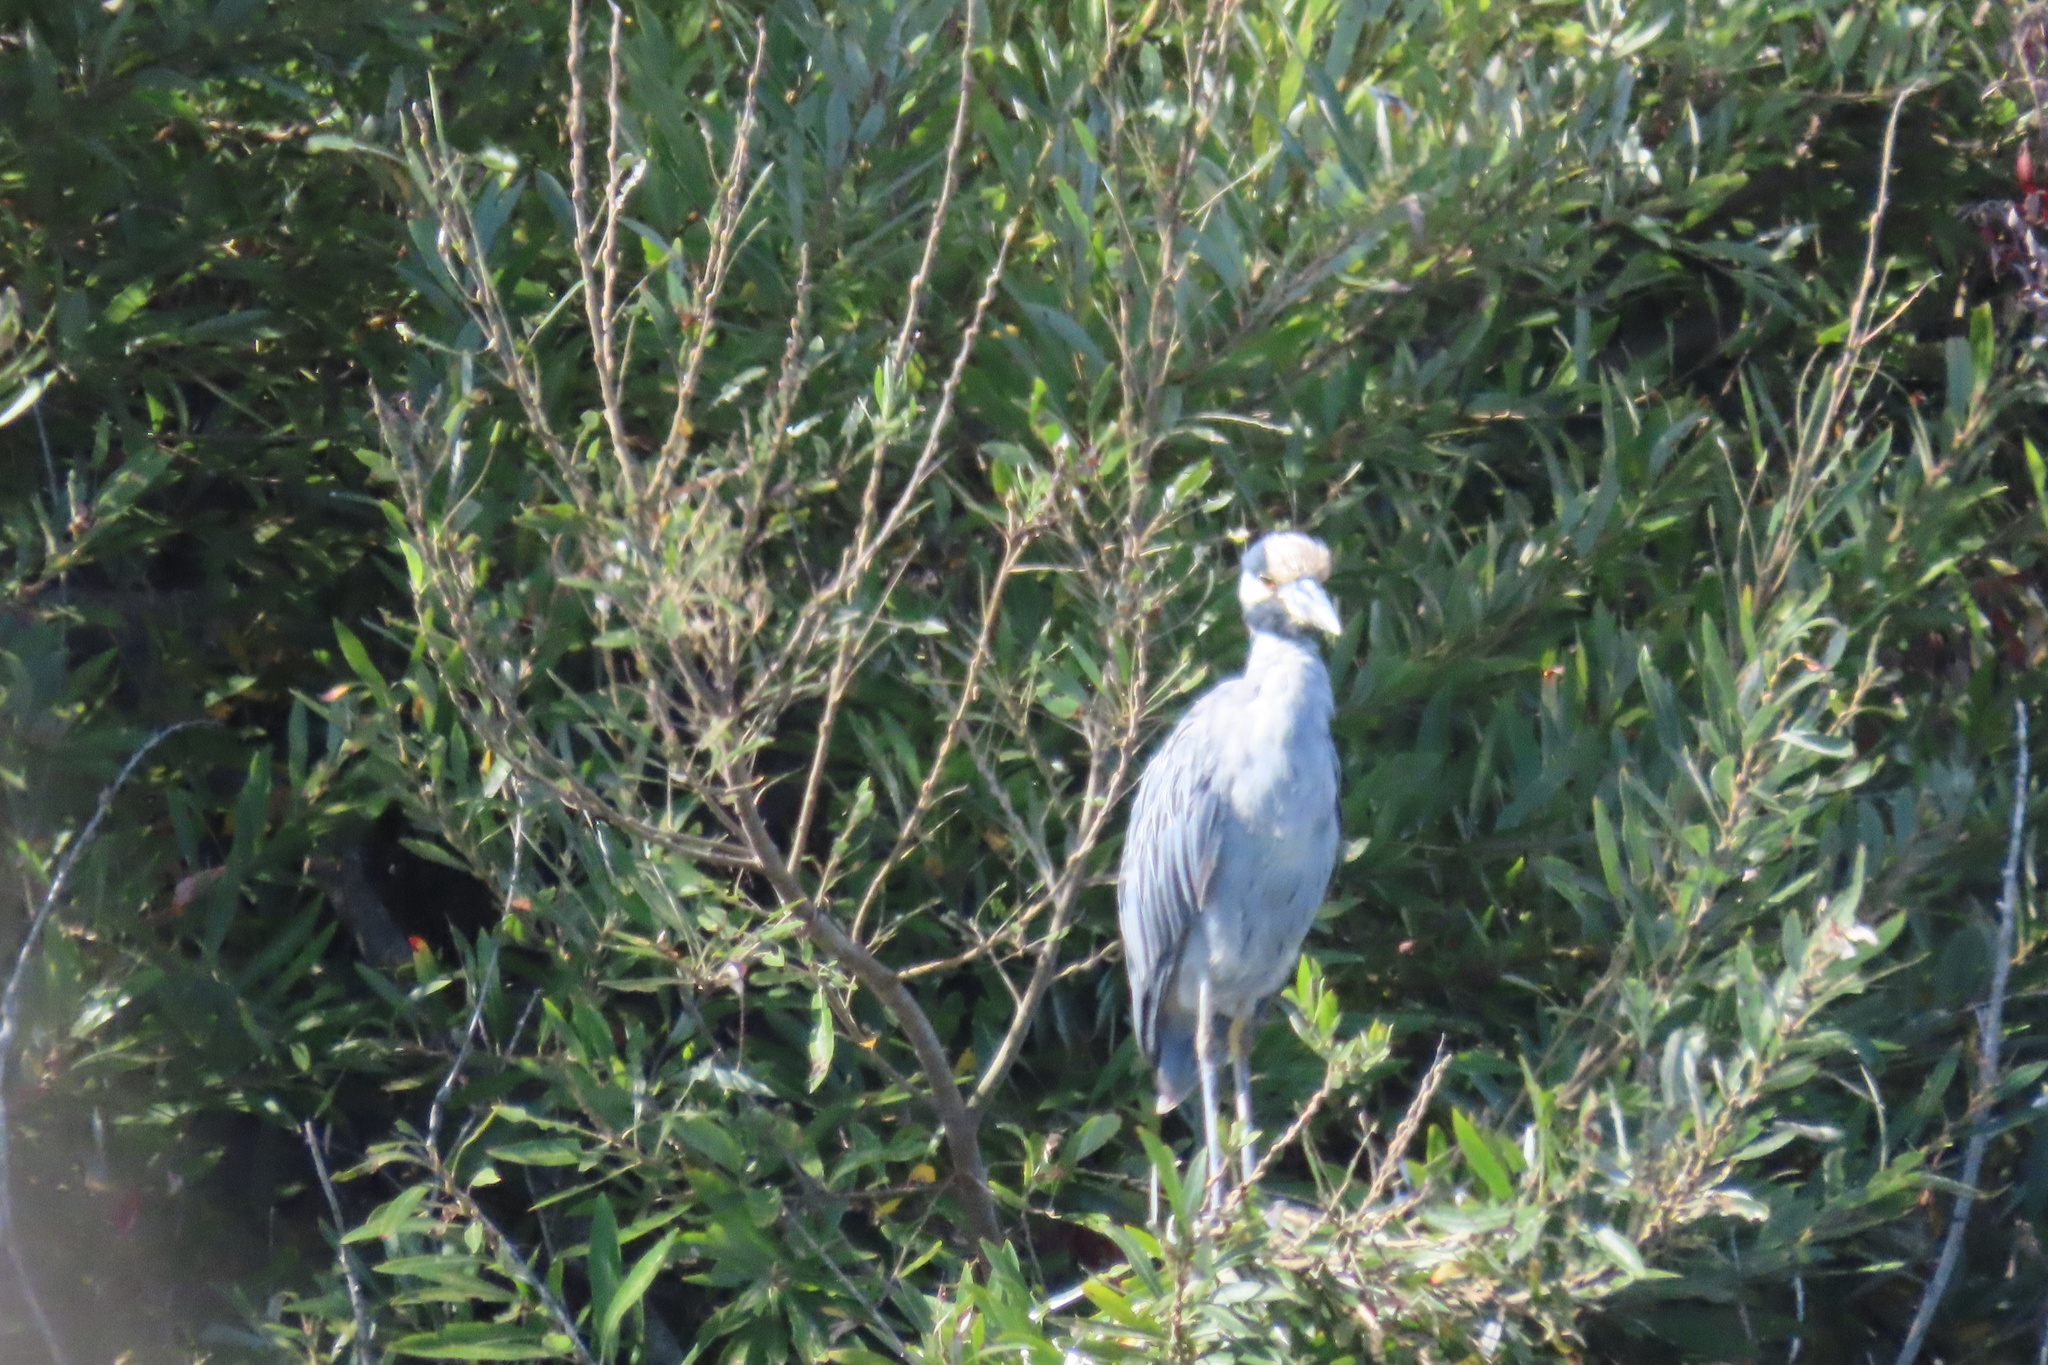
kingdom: Animalia
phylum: Chordata
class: Aves
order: Pelecaniformes
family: Ardeidae
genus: Nyctanassa
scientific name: Nyctanassa violacea
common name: Yellow-crowned night heron
